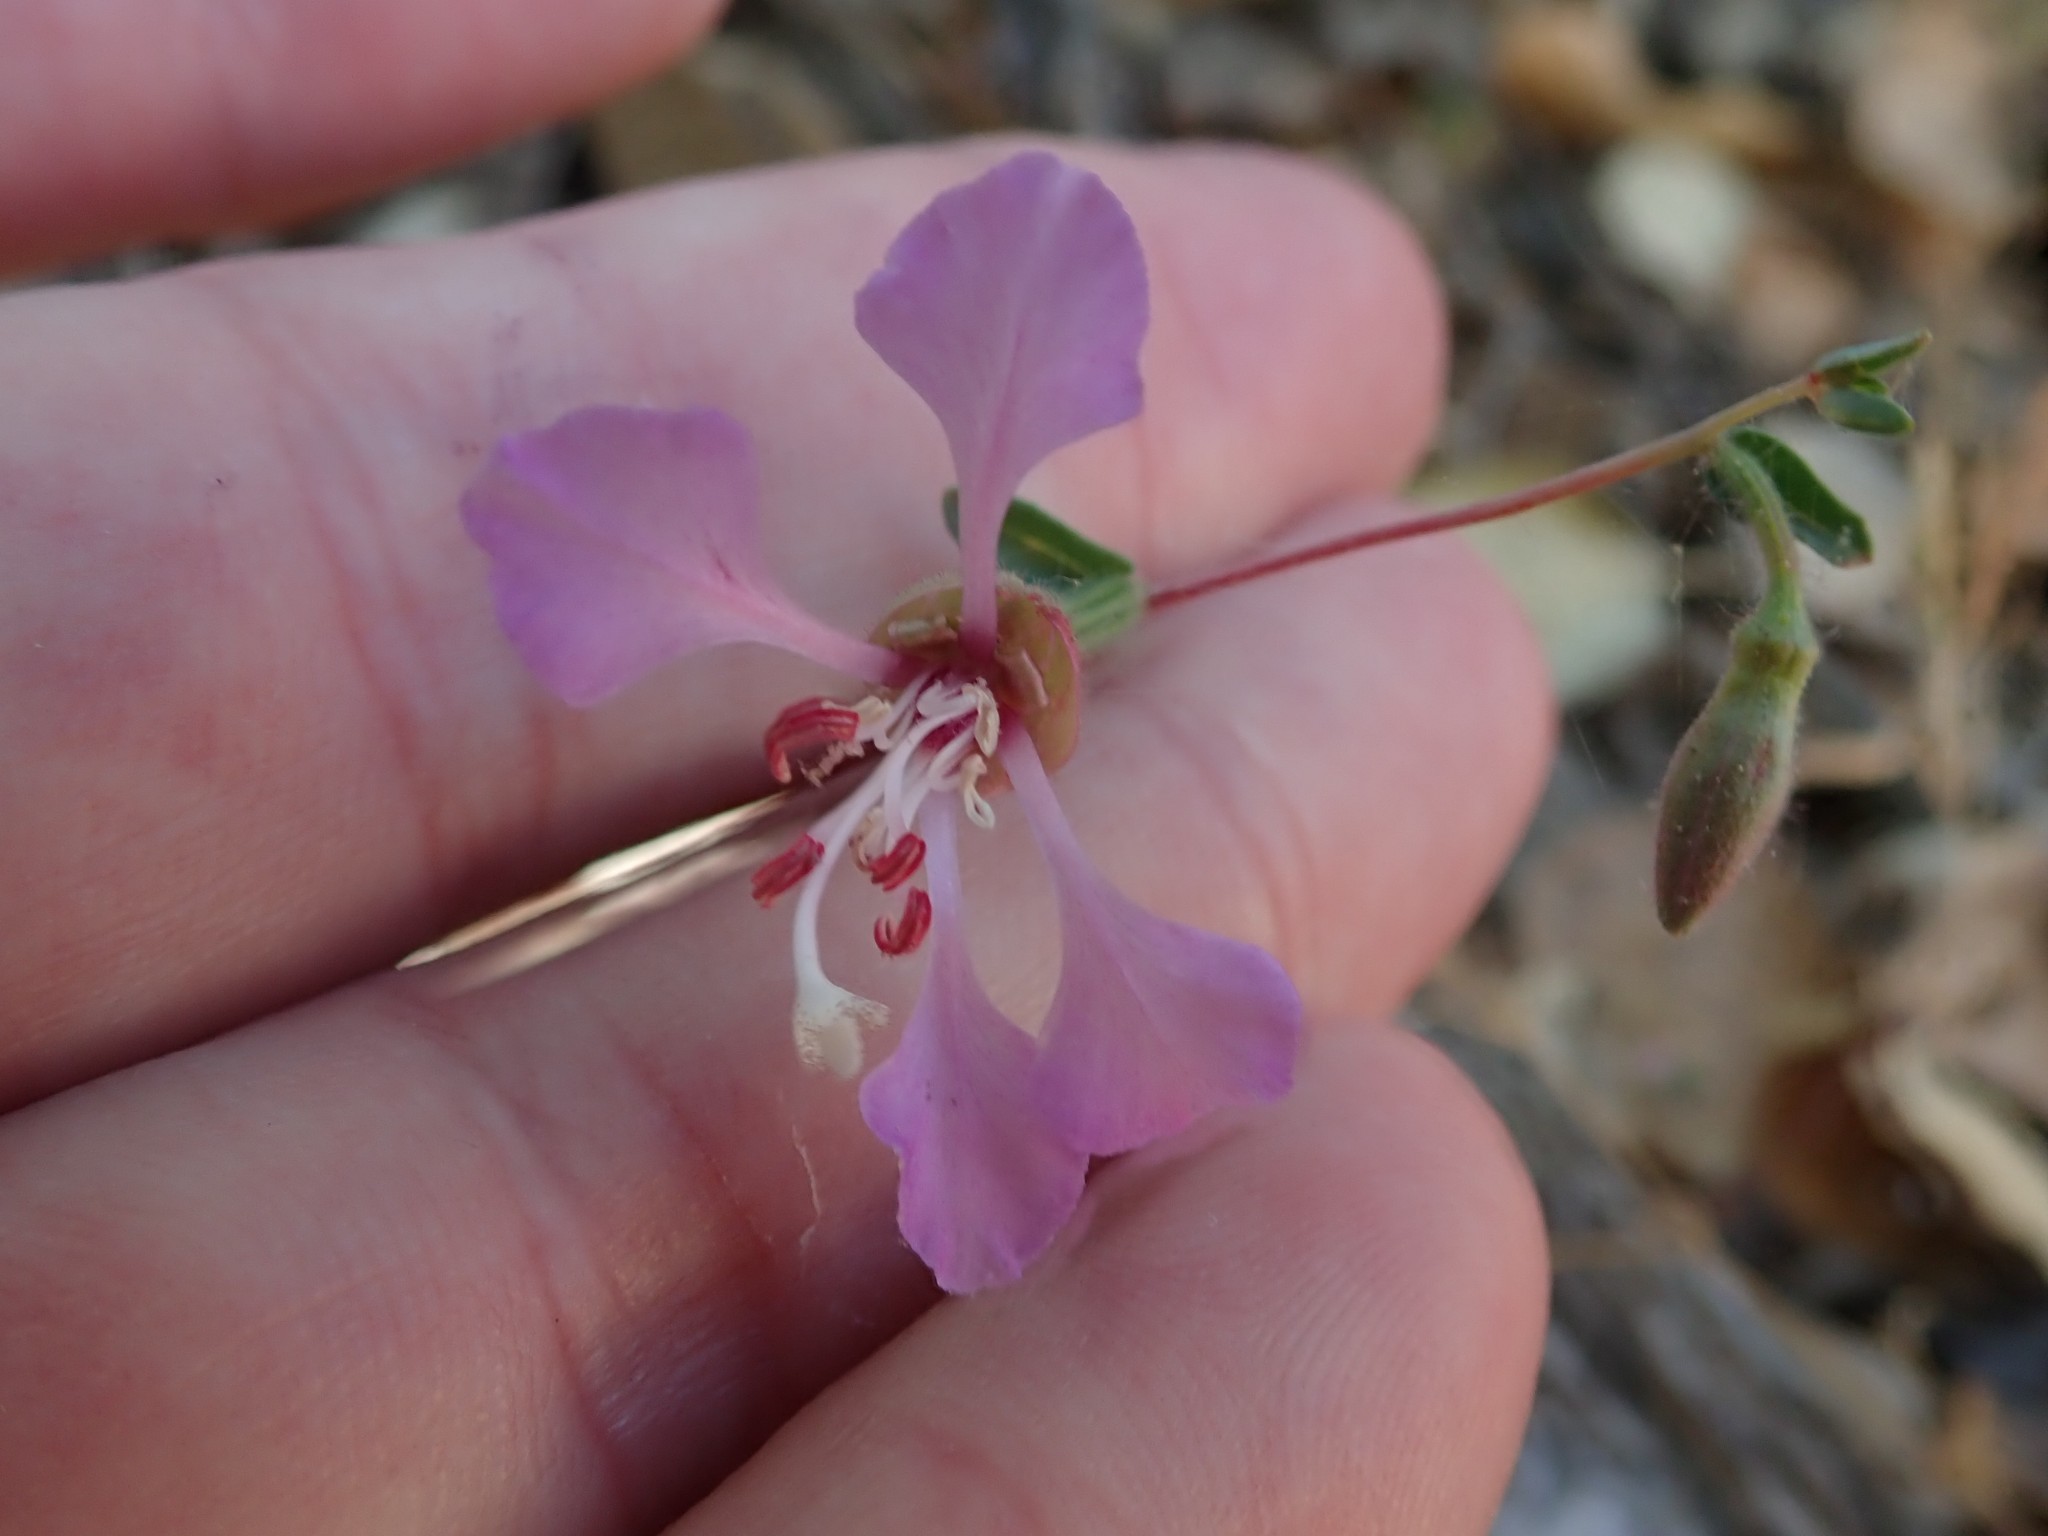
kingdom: Plantae
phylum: Tracheophyta
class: Magnoliopsida
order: Myrtales
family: Onagraceae
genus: Clarkia
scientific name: Clarkia unguiculata
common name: Clarkia
